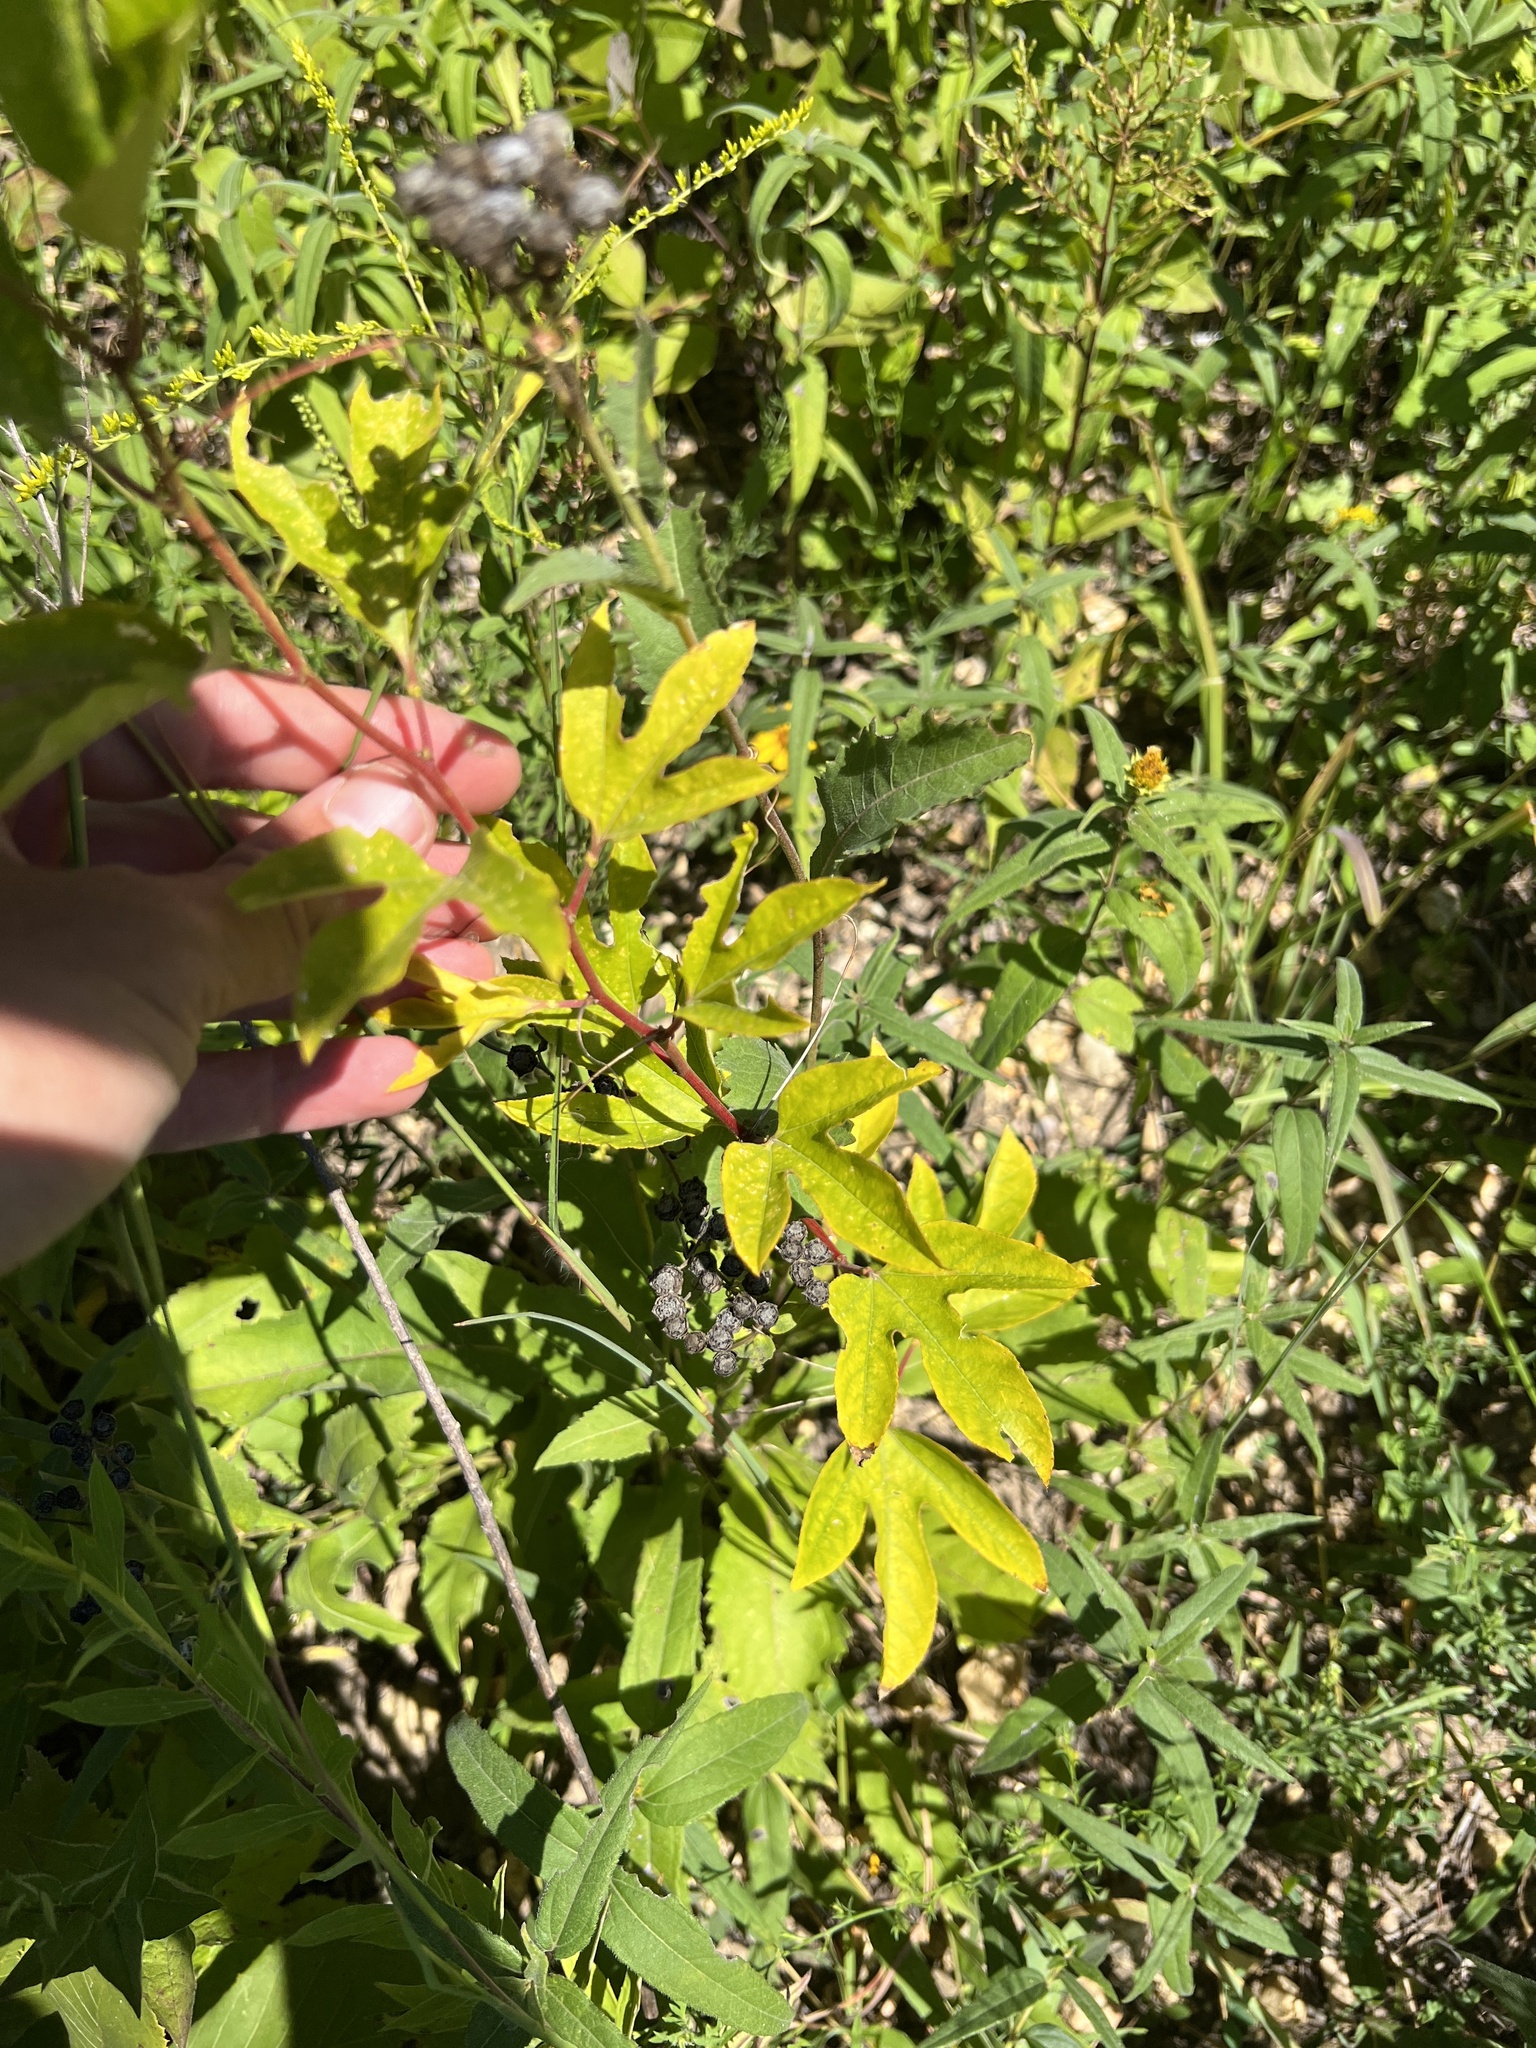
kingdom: Plantae
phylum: Tracheophyta
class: Magnoliopsida
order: Malpighiales
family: Passifloraceae
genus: Passiflora
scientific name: Passiflora incarnata
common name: Apricot-vine
